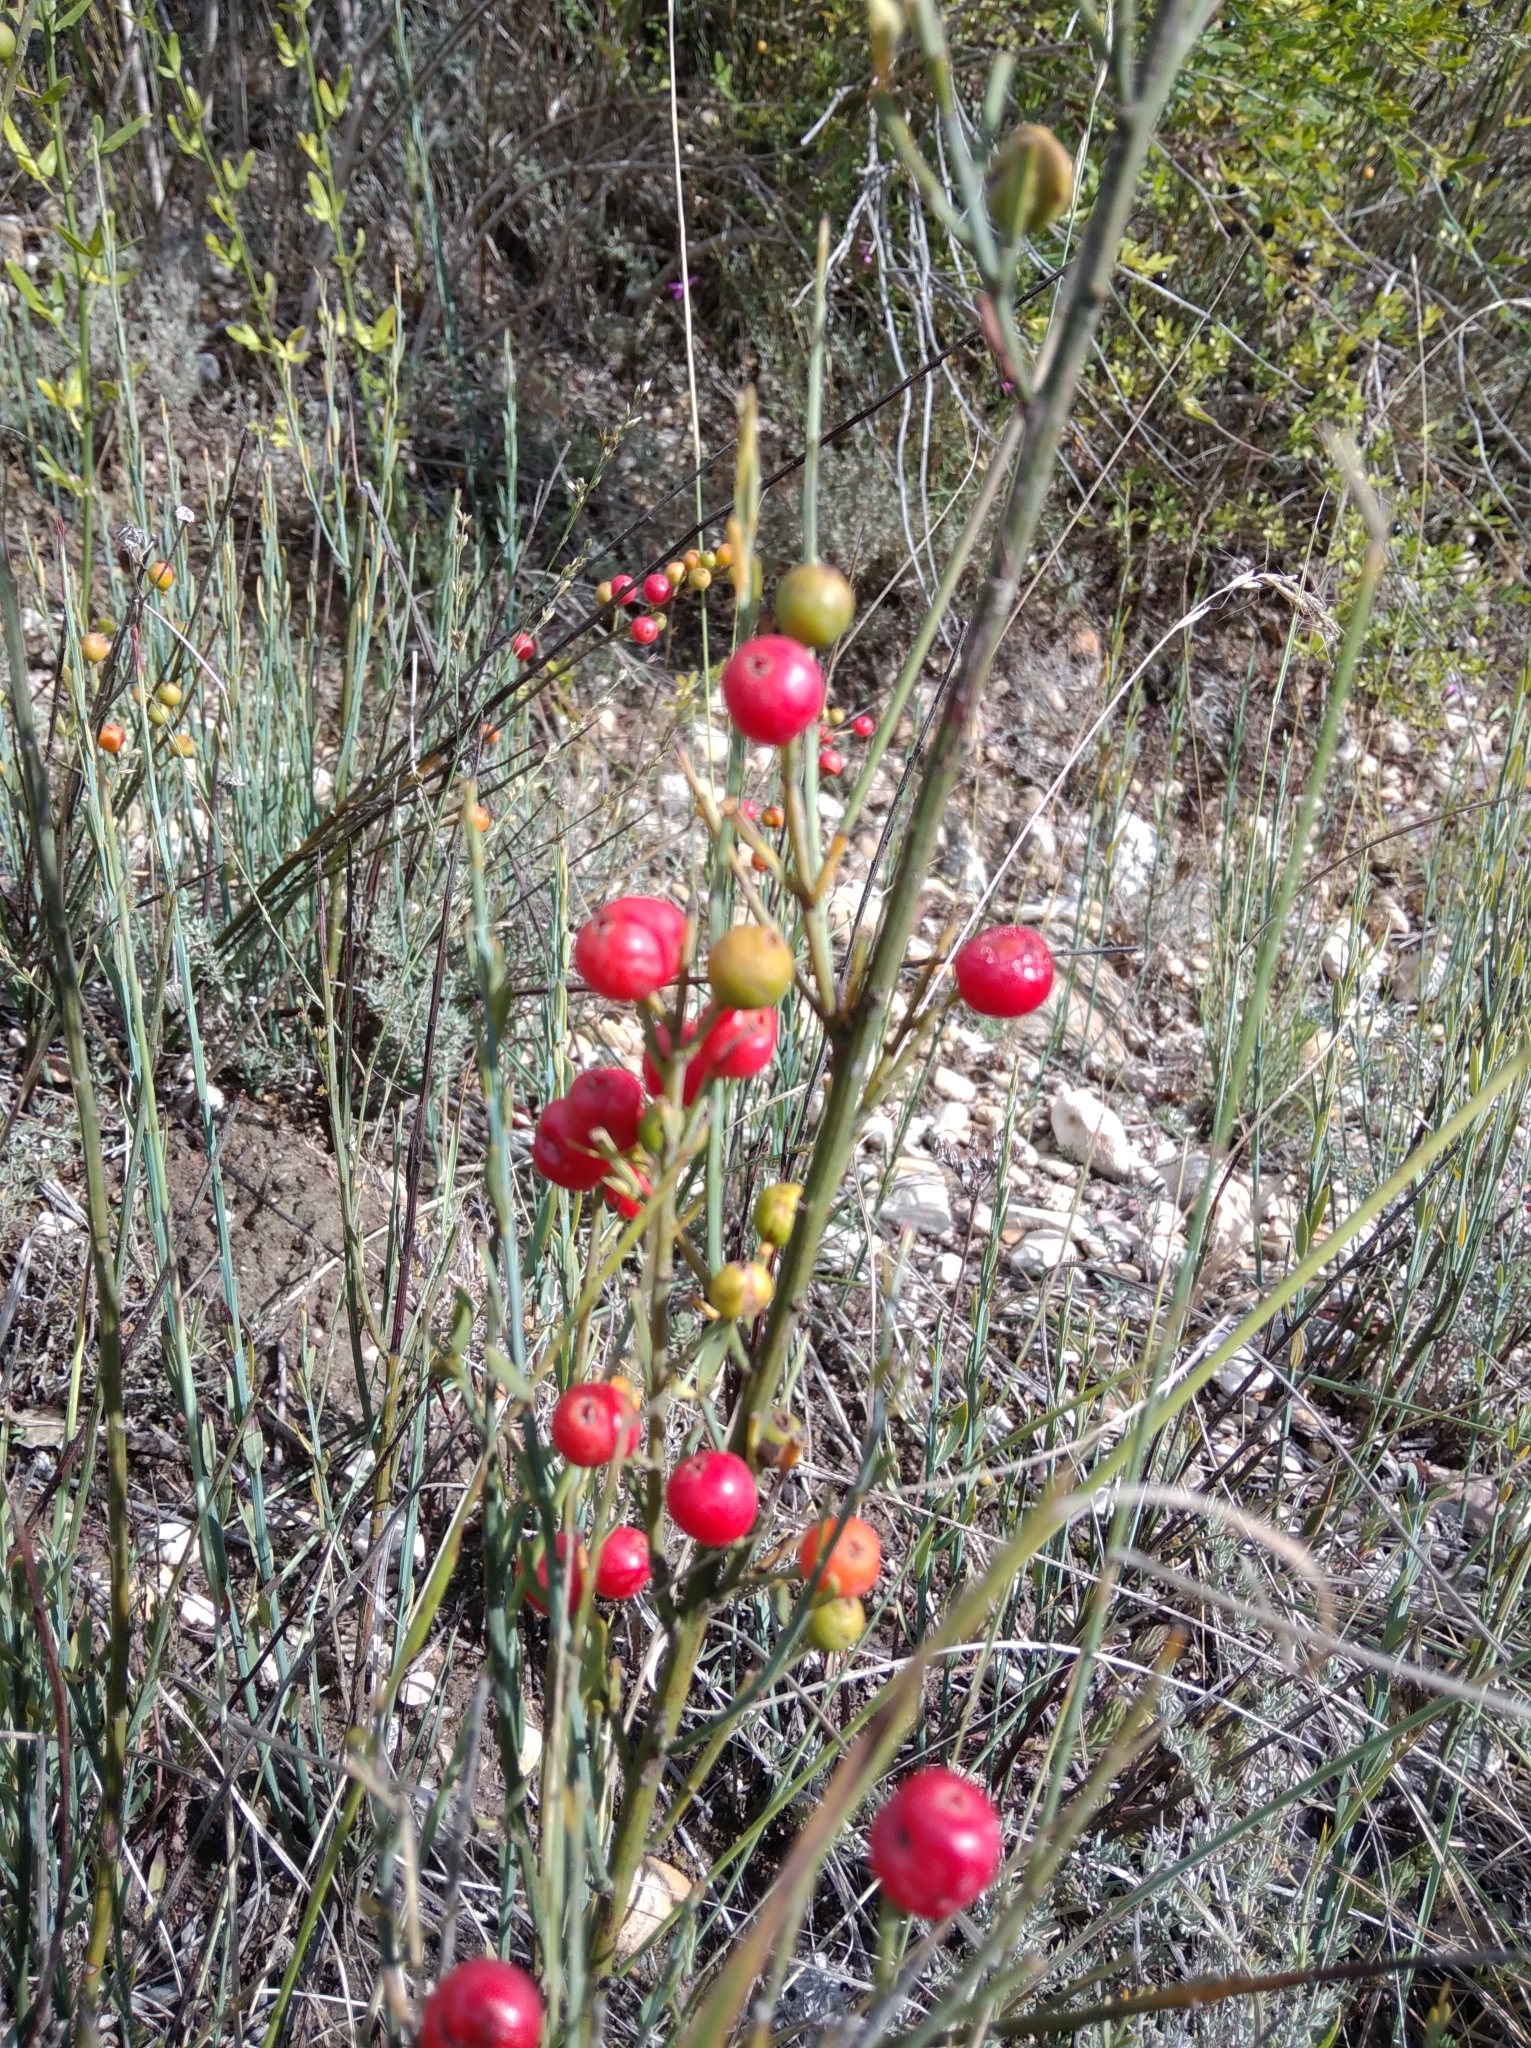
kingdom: Plantae
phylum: Tracheophyta
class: Magnoliopsida
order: Santalales
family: Santalaceae
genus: Osyris
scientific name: Osyris alba
